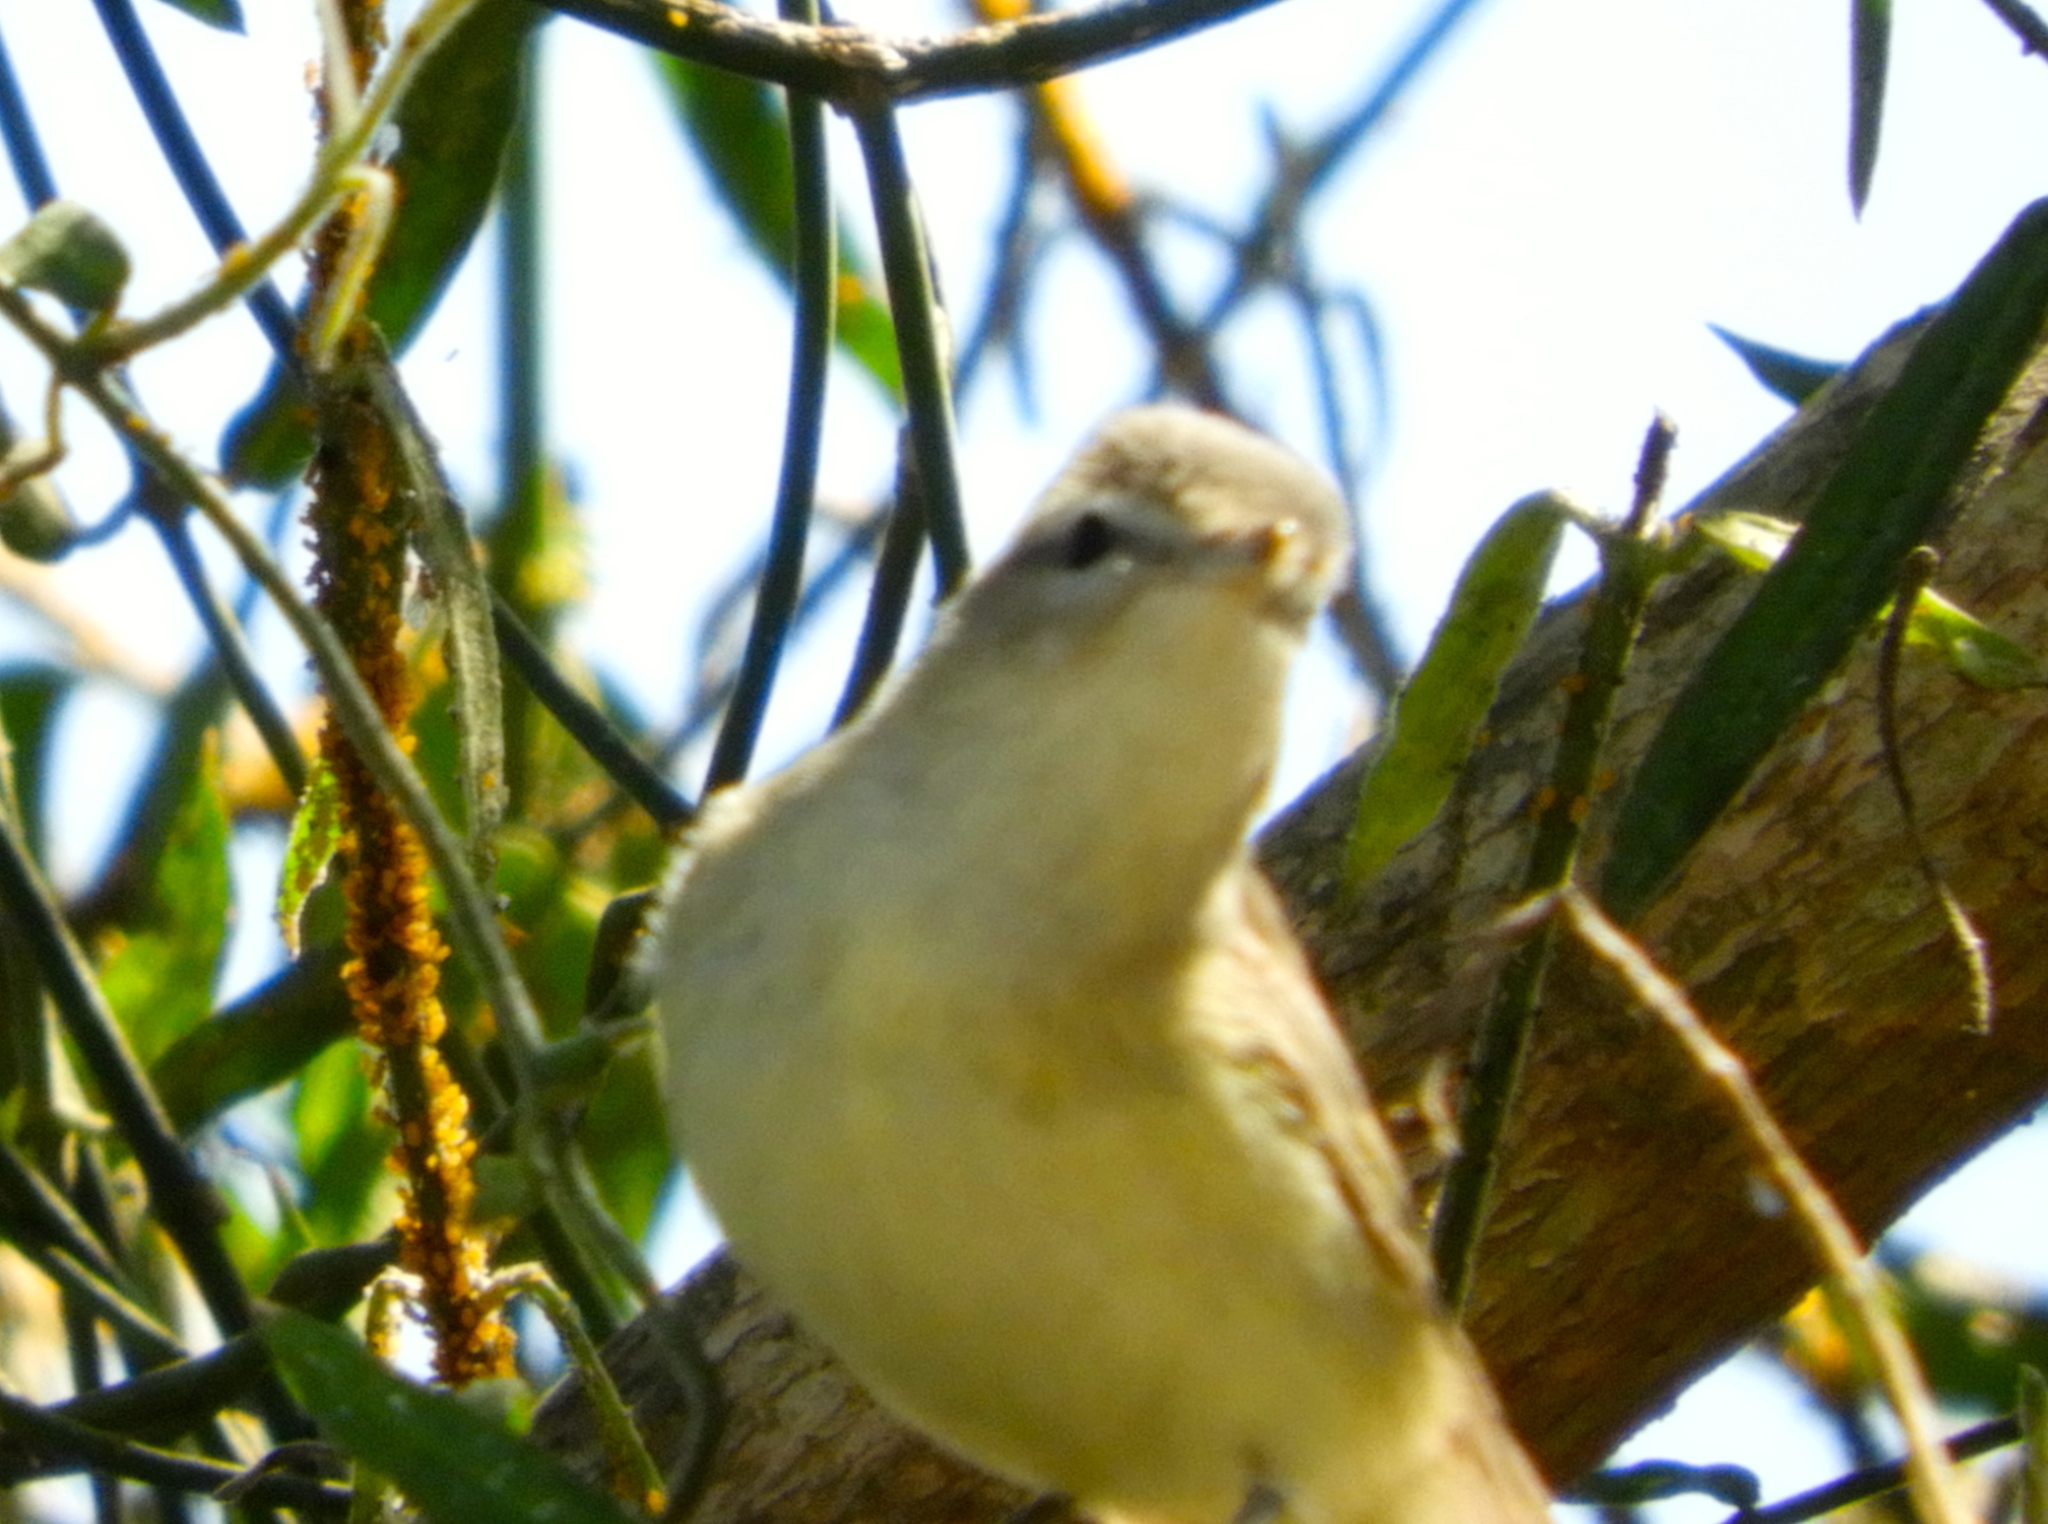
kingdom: Animalia
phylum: Chordata
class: Aves
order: Passeriformes
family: Vireonidae
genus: Vireo
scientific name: Vireo gilvus
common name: Warbling vireo
